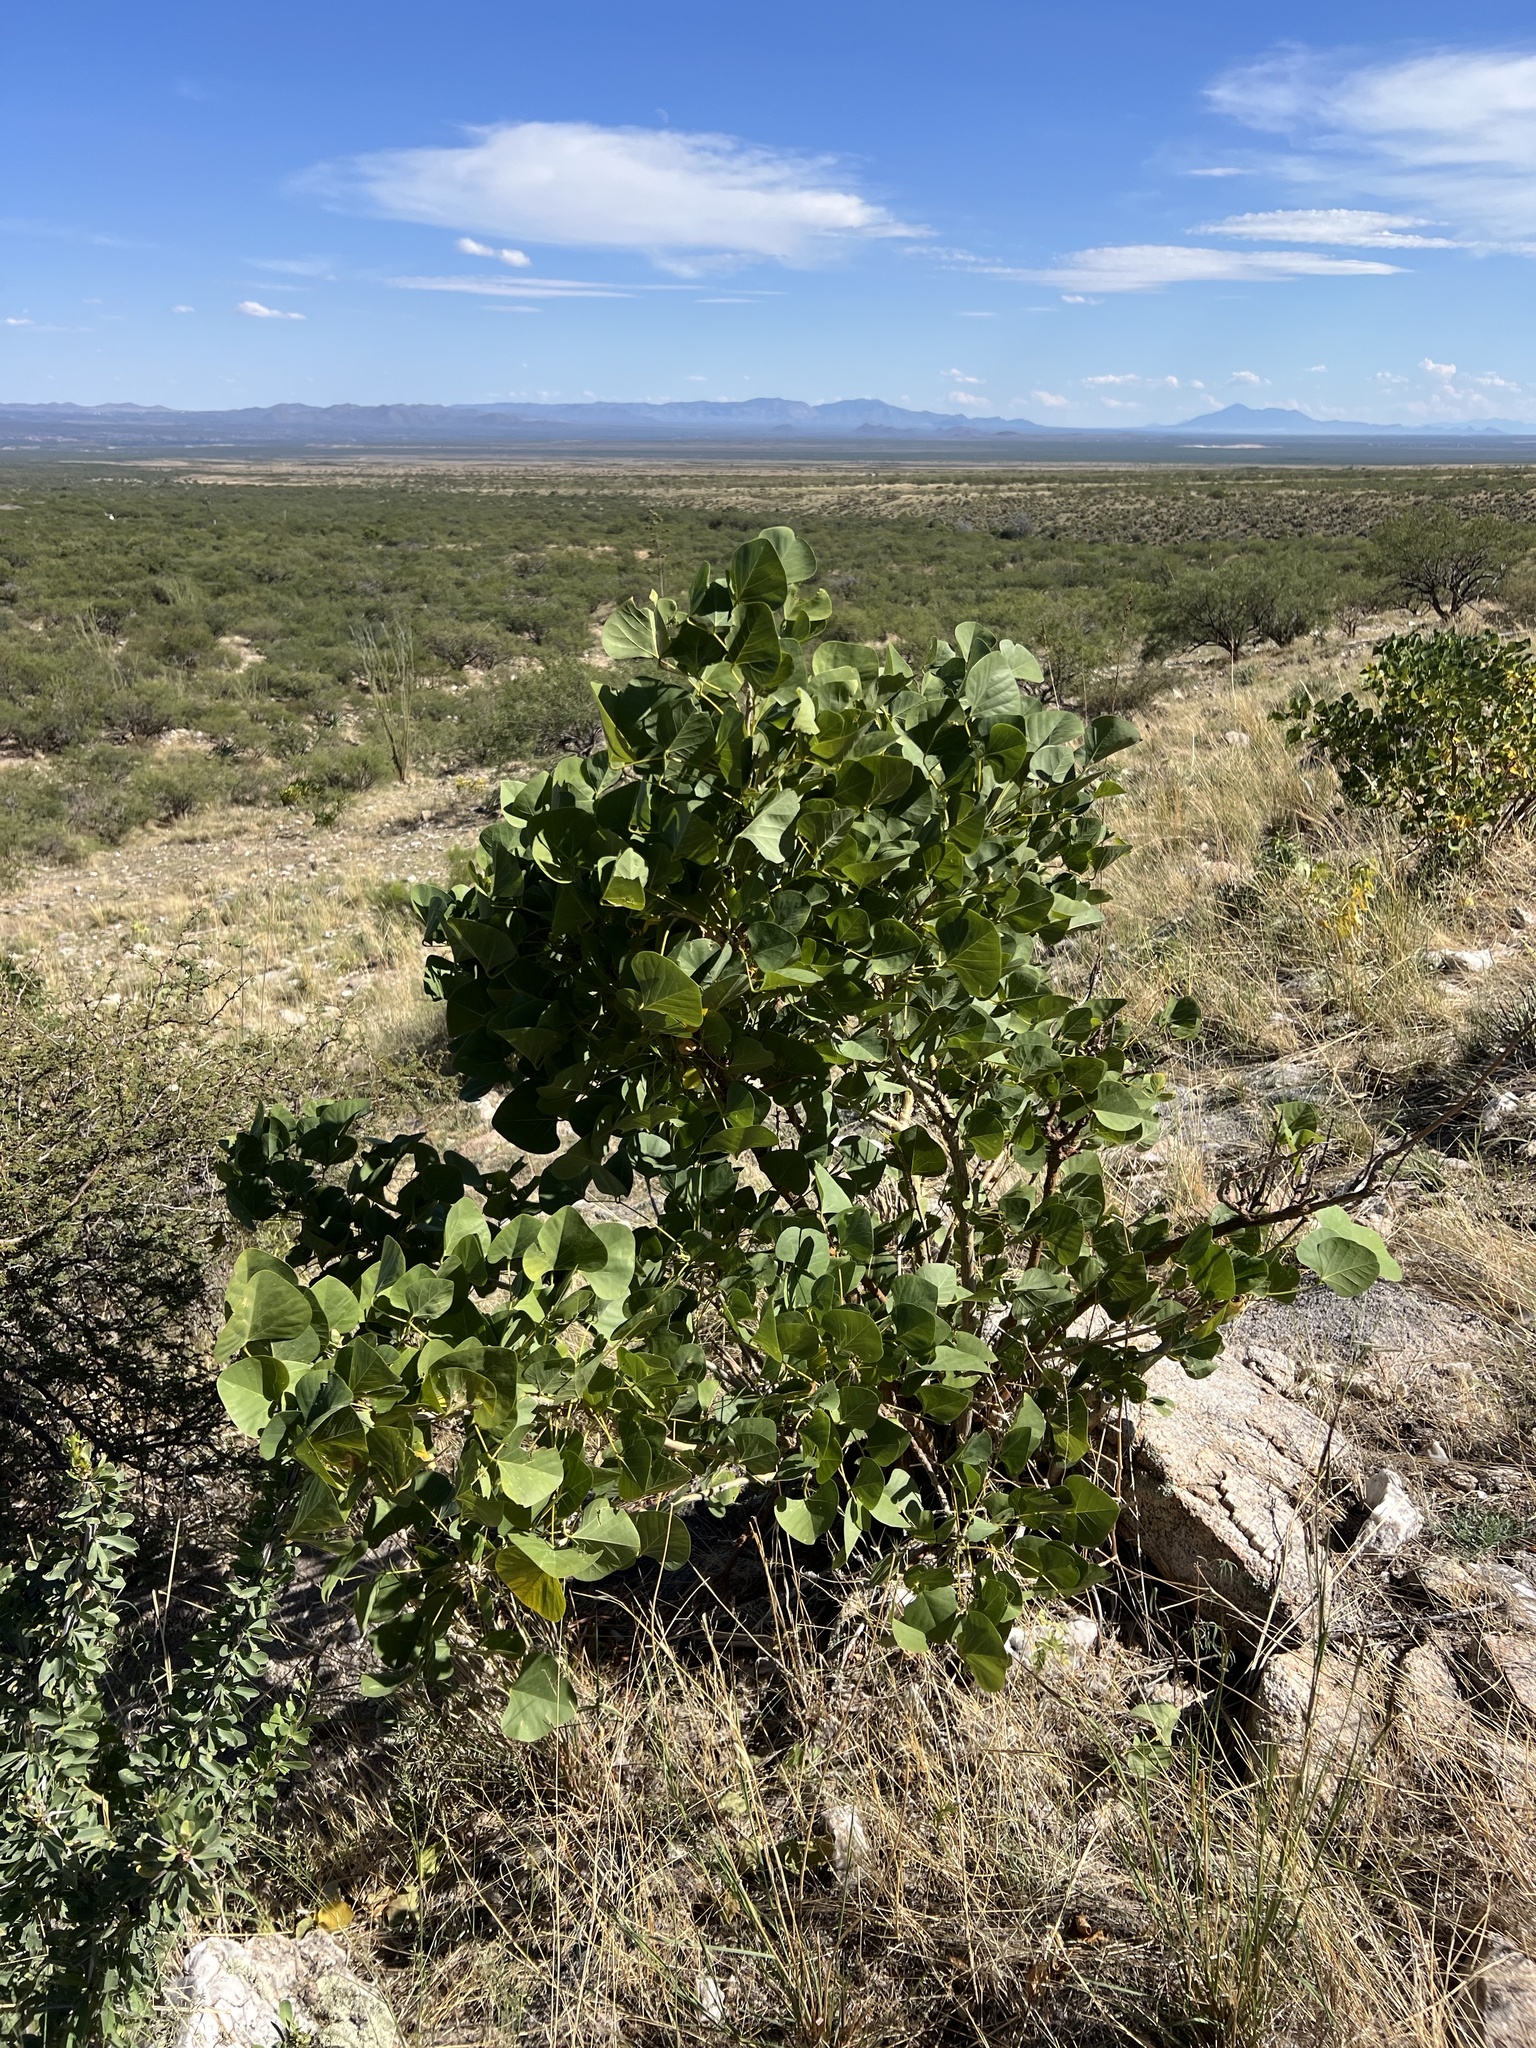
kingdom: Plantae
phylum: Tracheophyta
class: Magnoliopsida
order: Fabales
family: Fabaceae
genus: Erythrina
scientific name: Erythrina flabelliformis
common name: Chilicote
